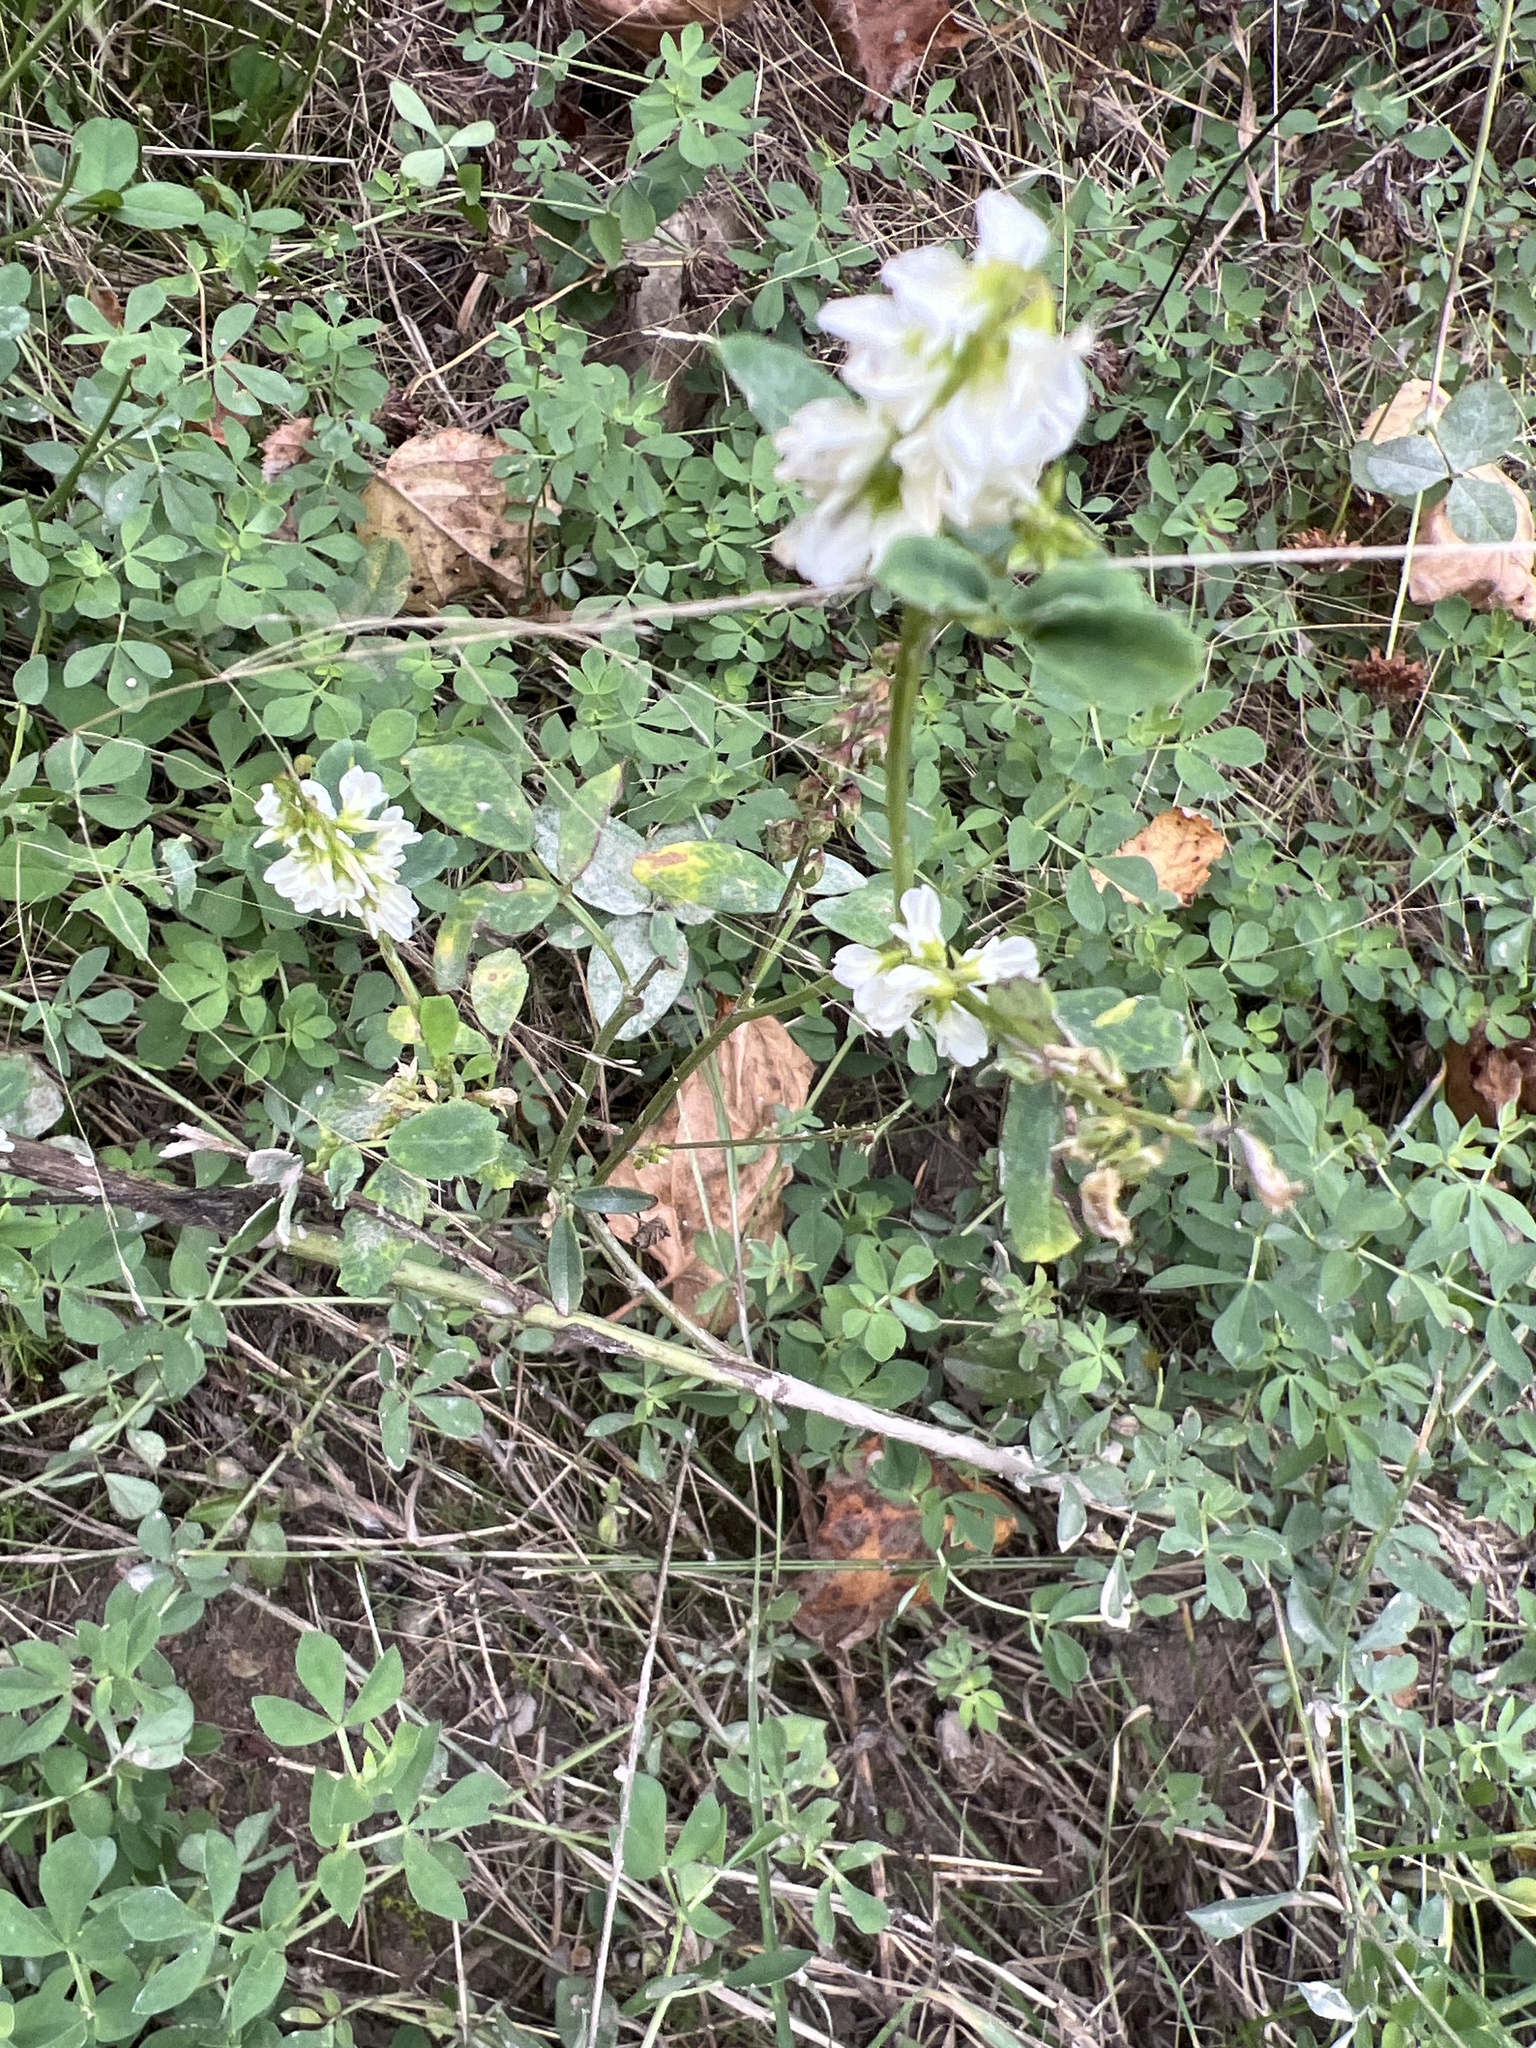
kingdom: Plantae
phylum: Tracheophyta
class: Magnoliopsida
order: Fabales
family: Fabaceae
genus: Melilotus
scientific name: Melilotus albus
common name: White melilot
